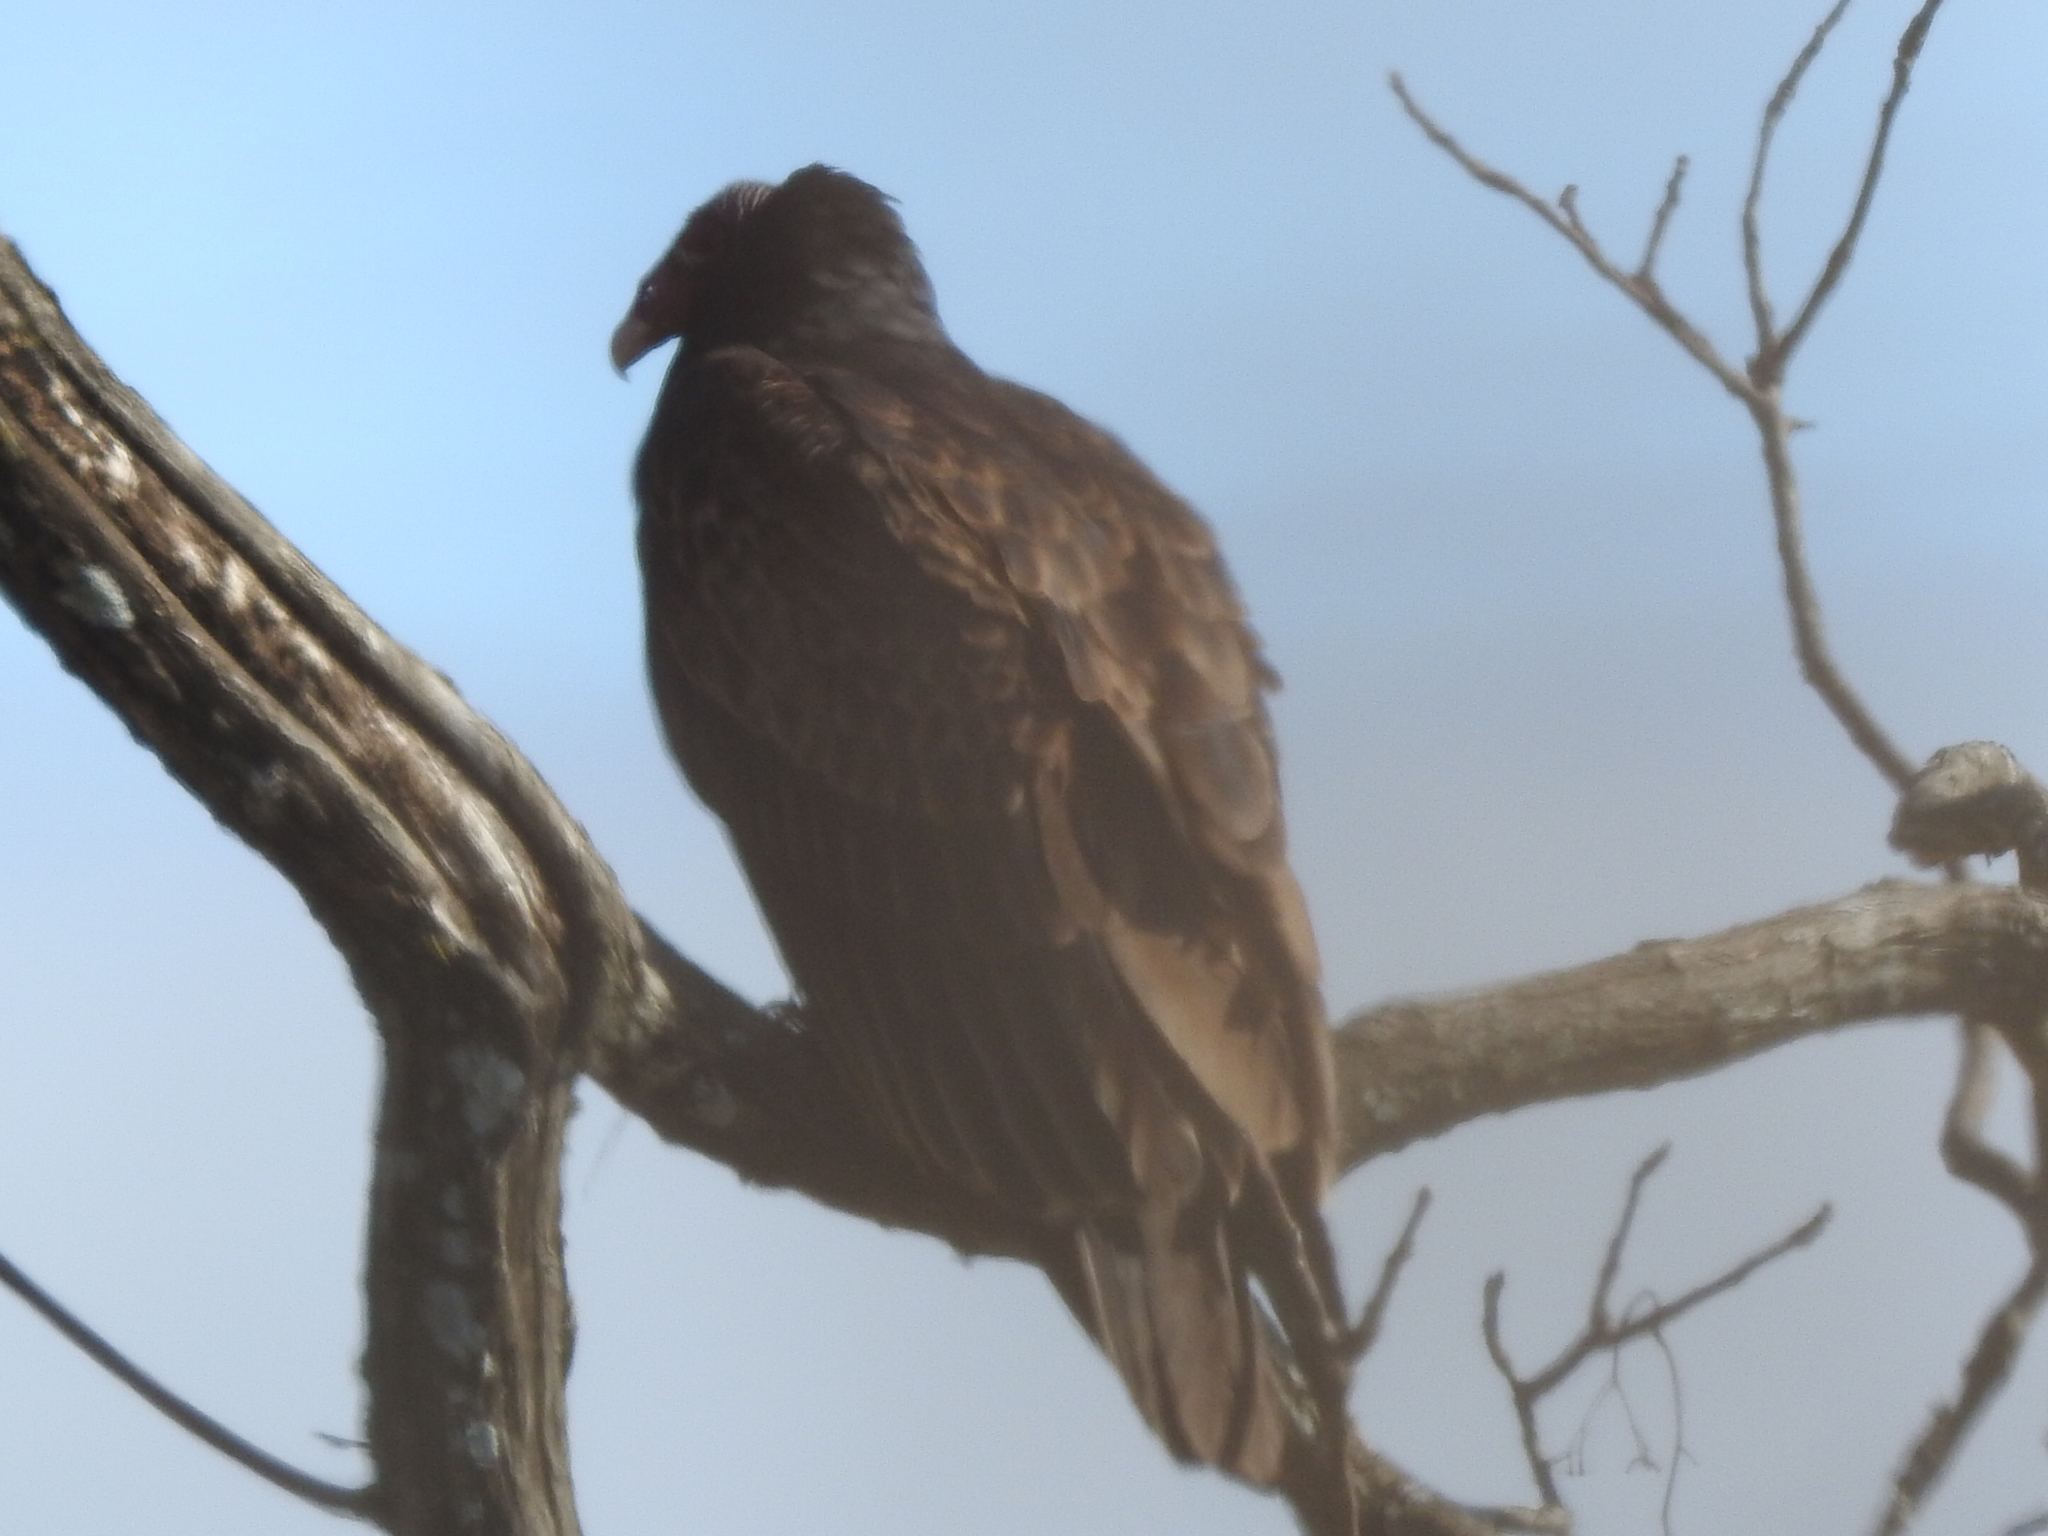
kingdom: Animalia
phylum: Chordata
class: Aves
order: Accipitriformes
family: Cathartidae
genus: Cathartes
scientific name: Cathartes aura
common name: Turkey vulture
